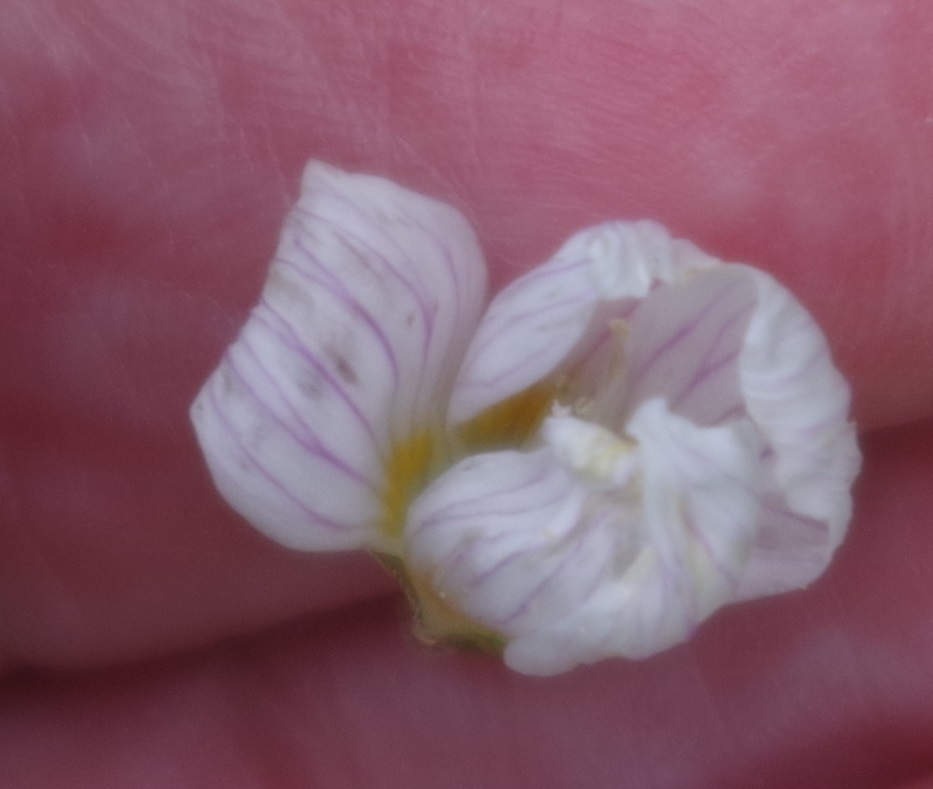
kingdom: Plantae
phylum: Tracheophyta
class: Magnoliopsida
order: Oxalidales
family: Oxalidaceae
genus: Oxalis
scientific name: Oxalis acetosella
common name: Wood-sorrel
